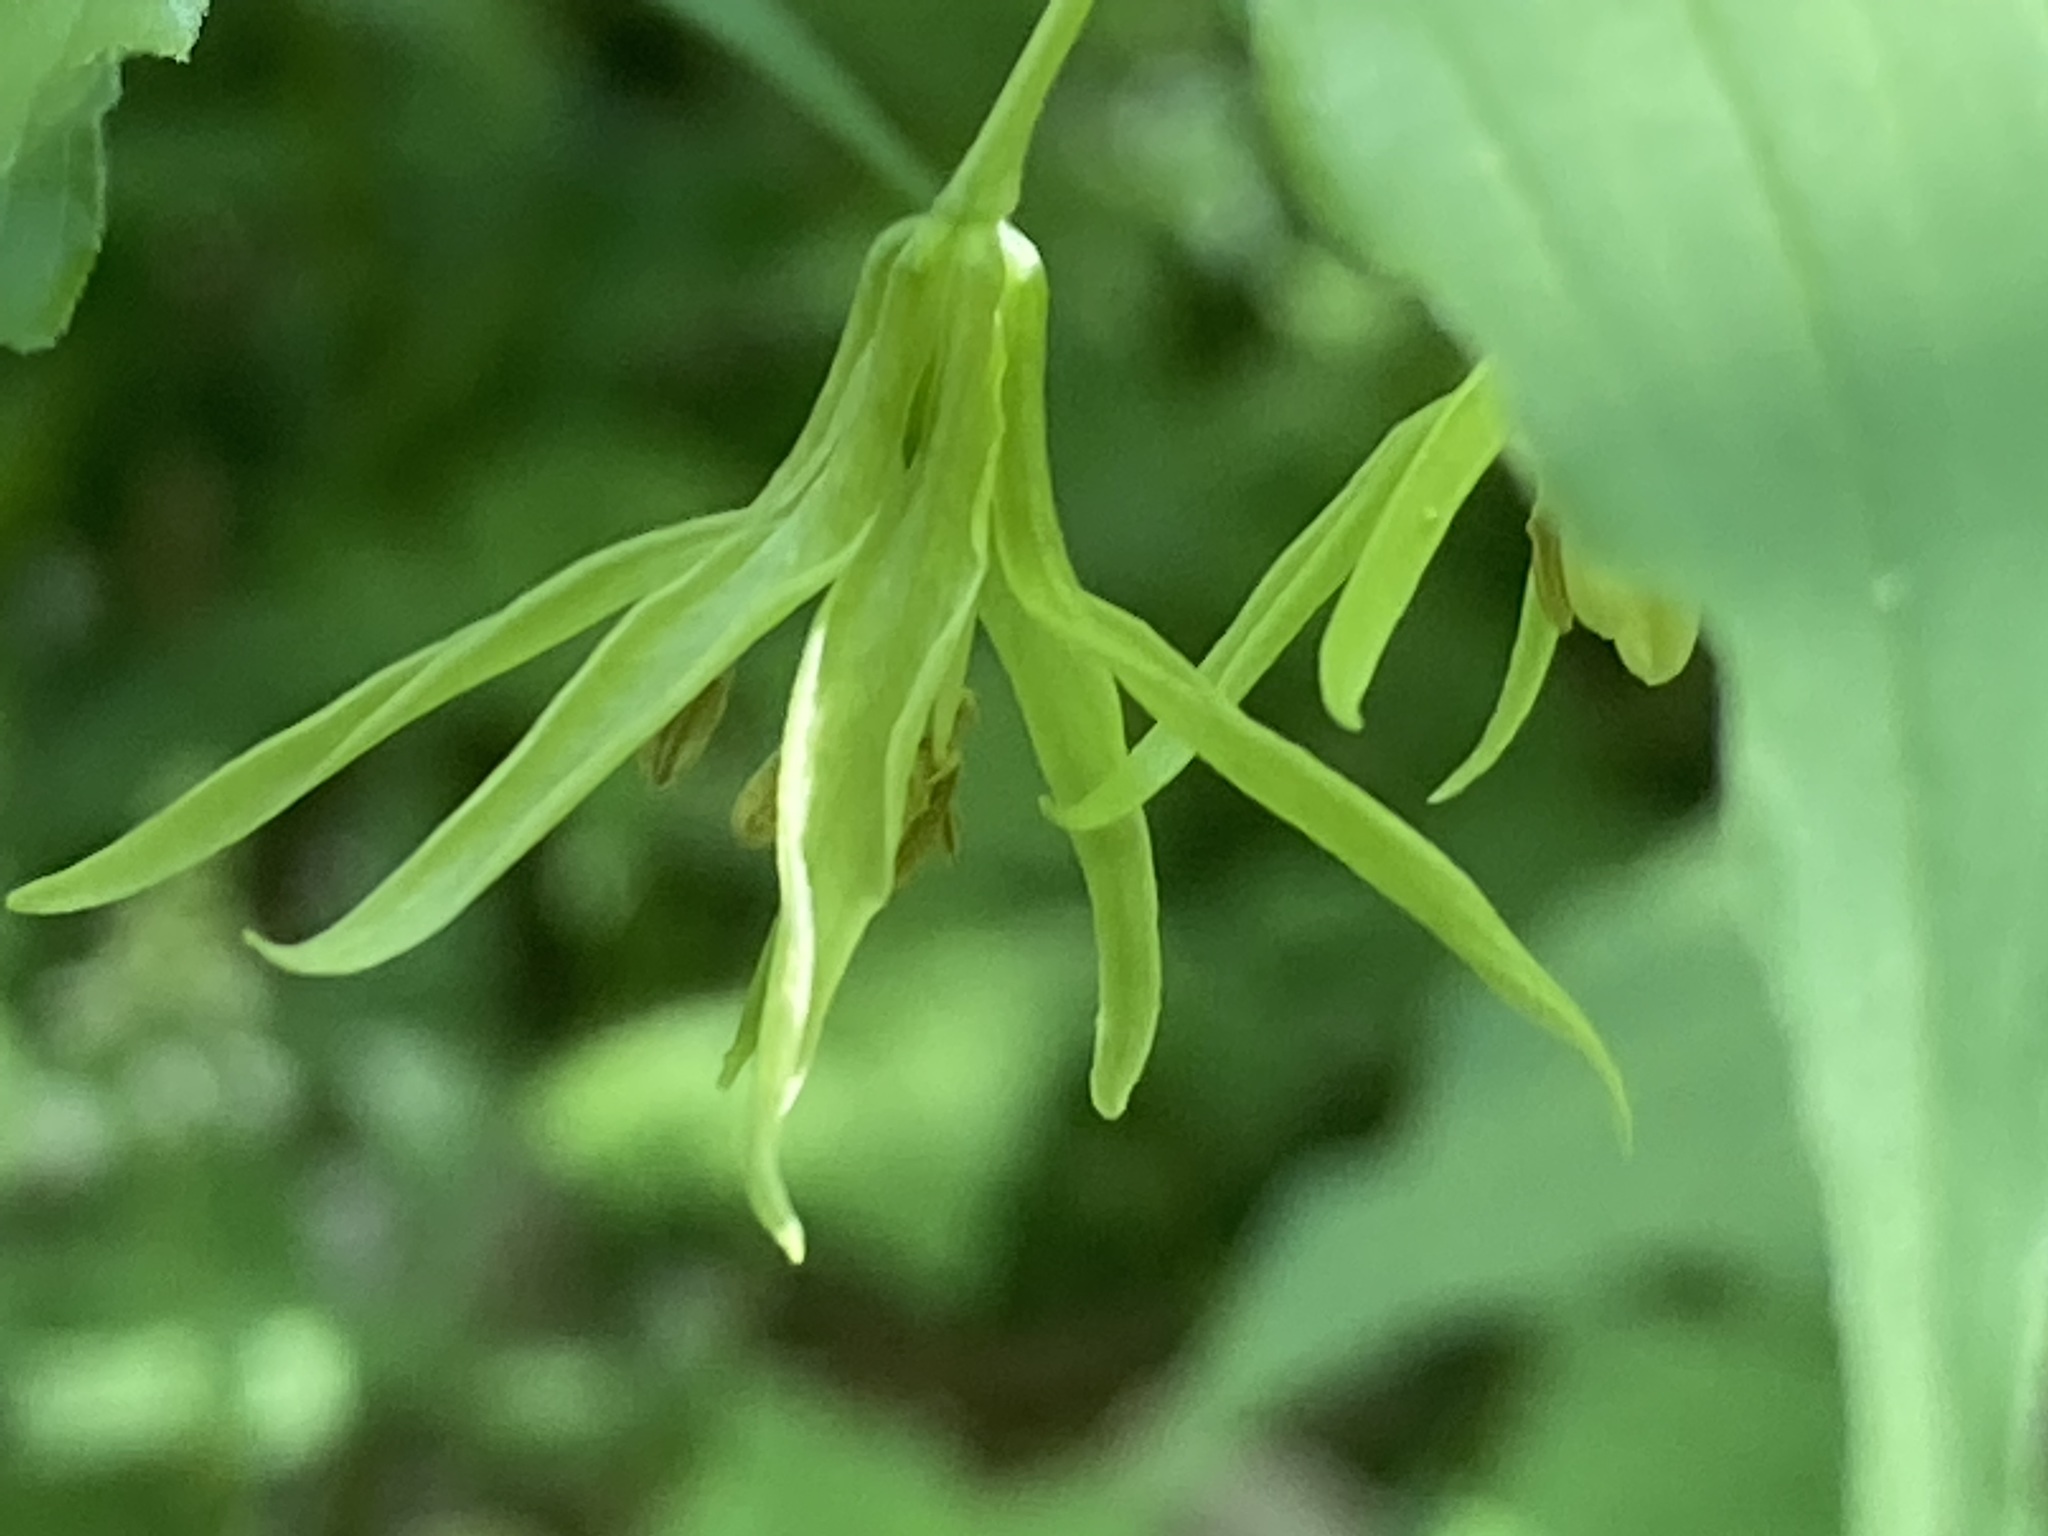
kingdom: Plantae
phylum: Tracheophyta
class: Liliopsida
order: Liliales
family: Liliaceae
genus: Prosartes
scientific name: Prosartes lanuginosa
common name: Hairy mandarin
